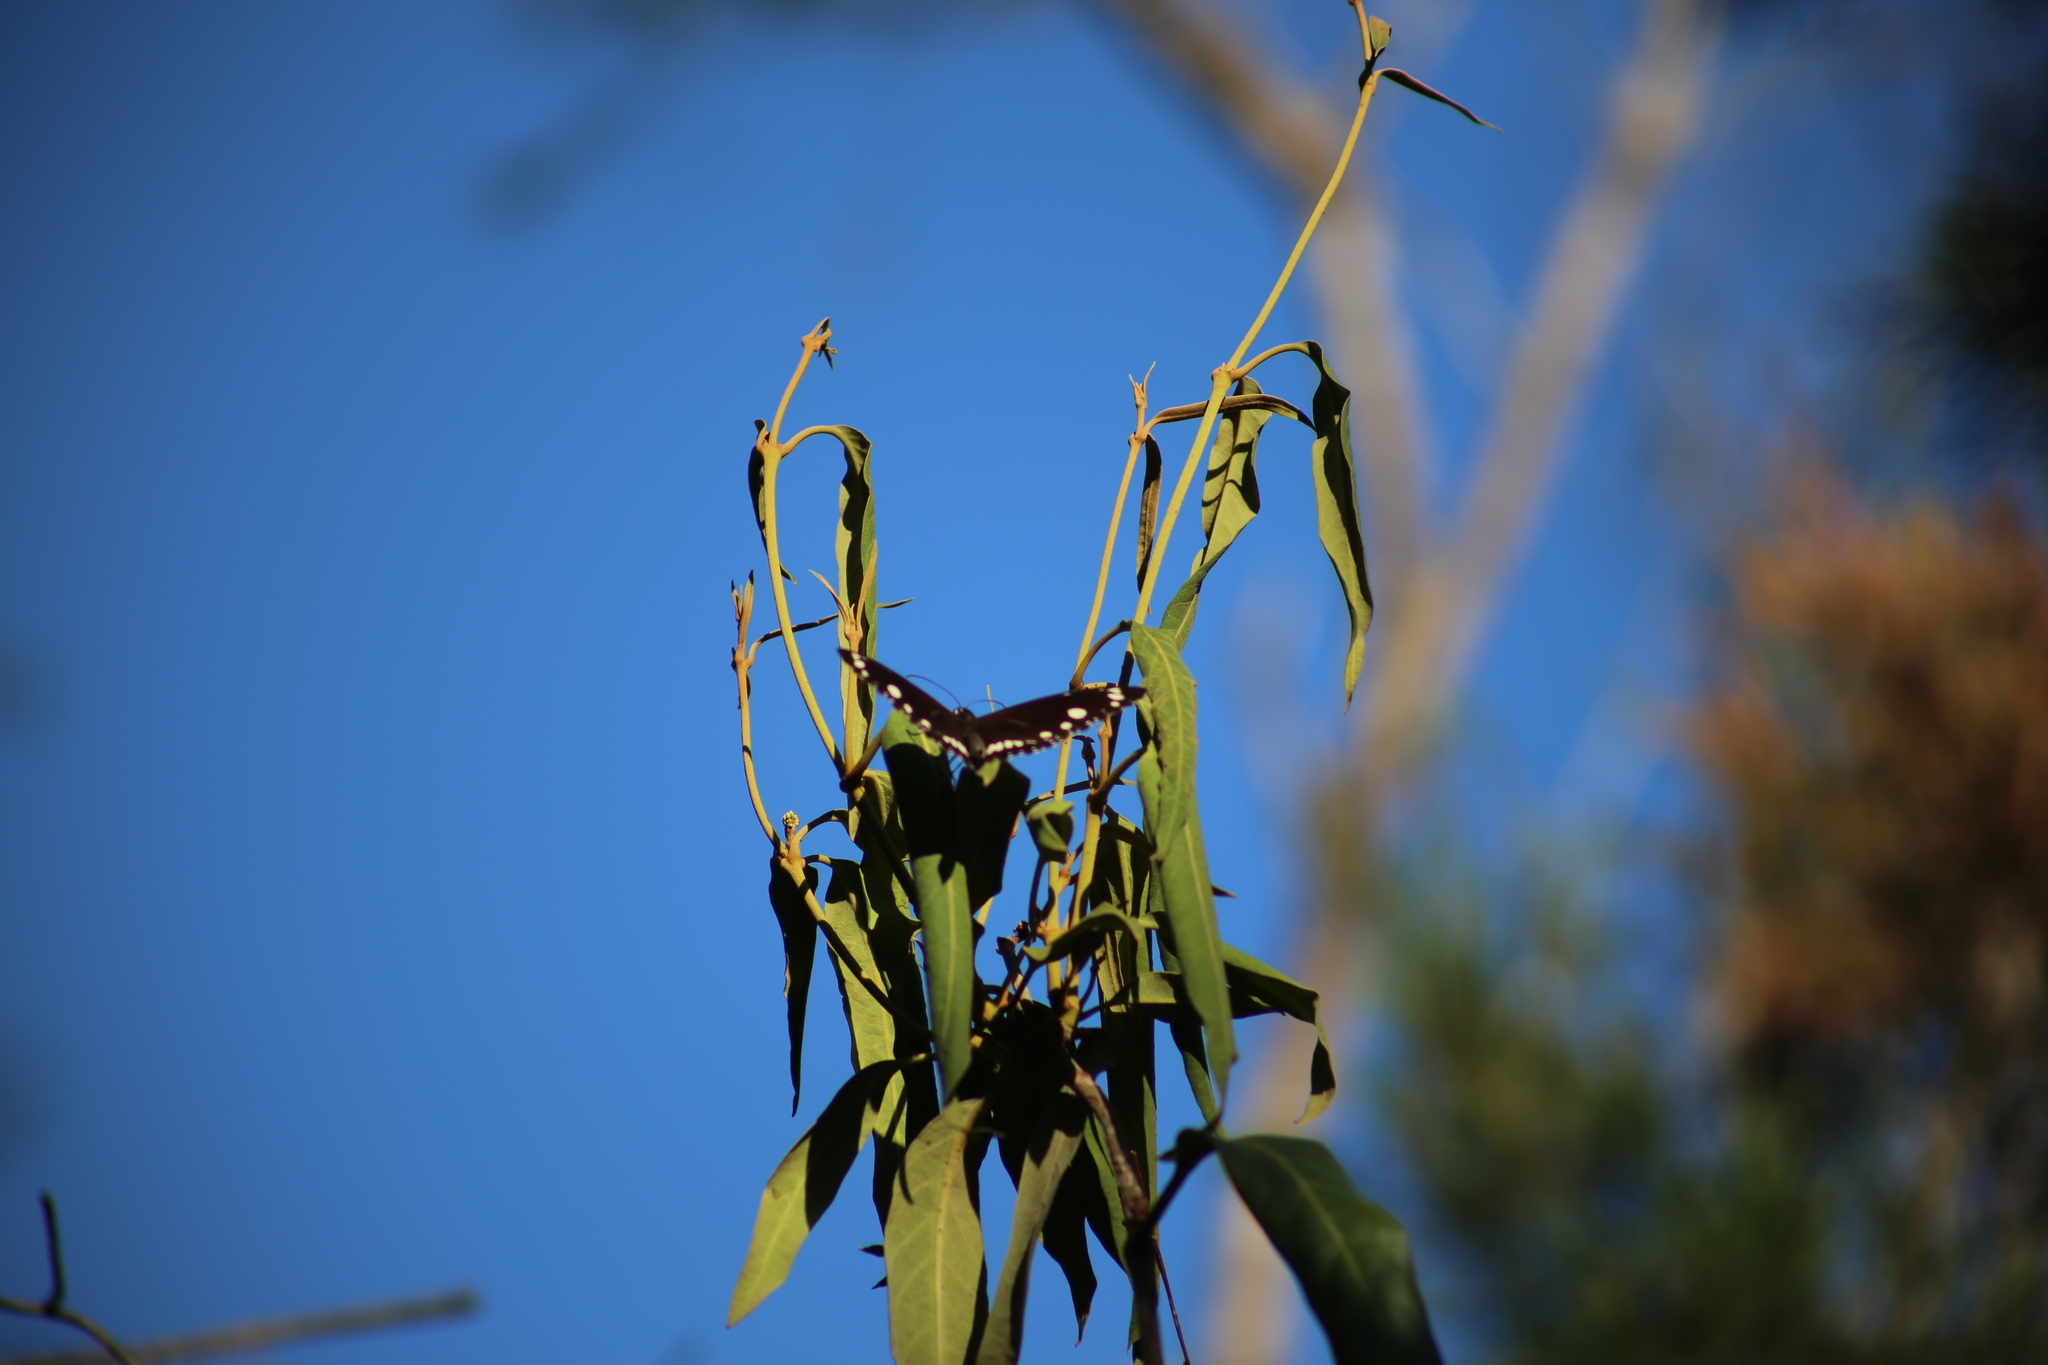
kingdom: Animalia
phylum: Arthropoda
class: Insecta
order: Lepidoptera
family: Nymphalidae
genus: Euploea
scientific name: Euploea core
